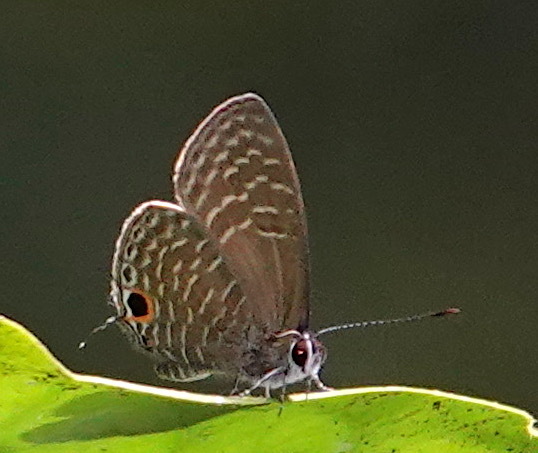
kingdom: Animalia
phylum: Arthropoda
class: Insecta
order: Lepidoptera
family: Lycaenidae
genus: Nacaduba
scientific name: Nacaduba sanaya
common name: Jewel fourline blue
